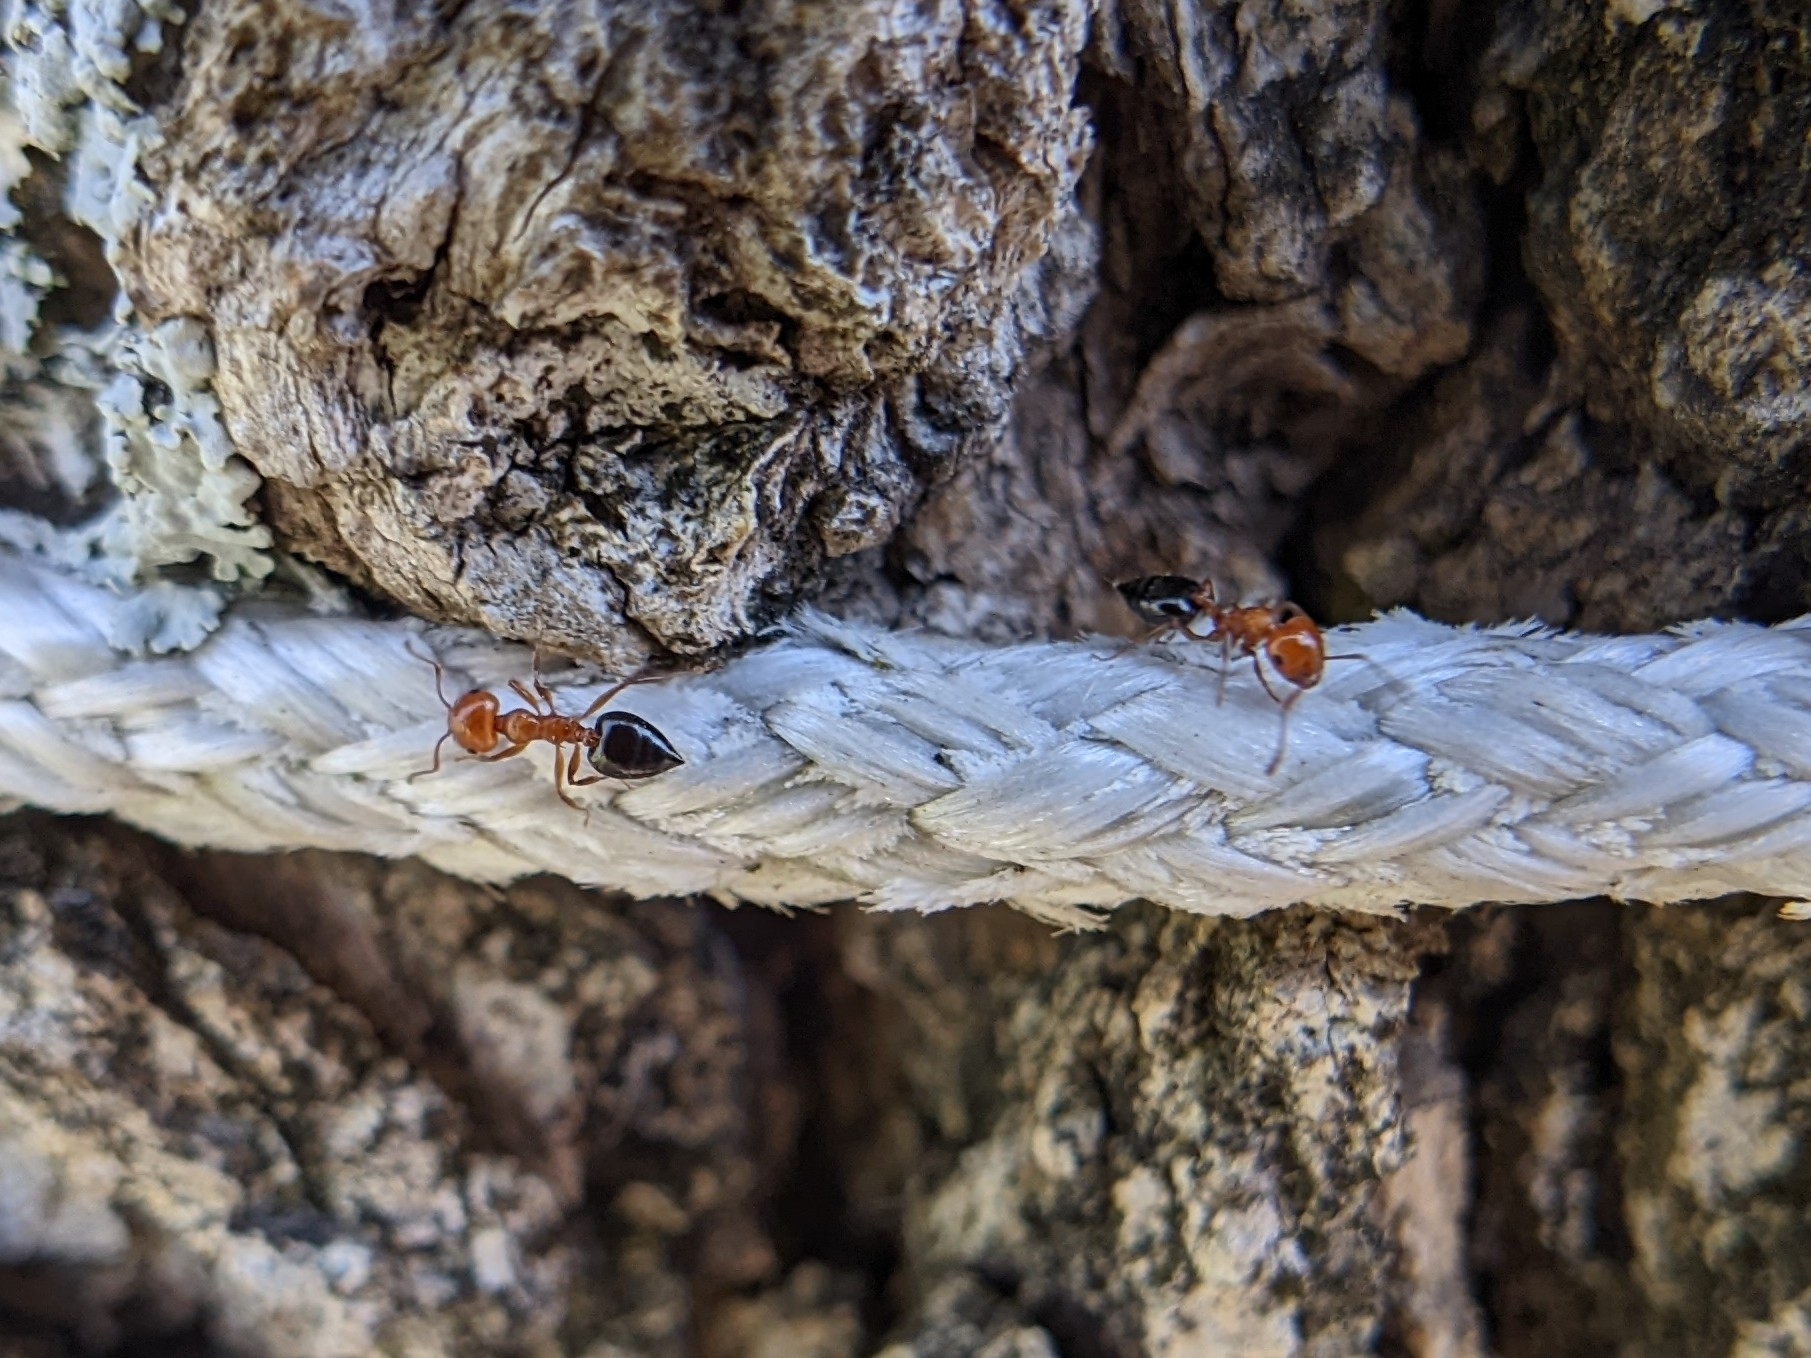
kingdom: Animalia
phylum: Arthropoda
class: Insecta
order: Hymenoptera
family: Formicidae
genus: Crematogaster
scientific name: Crematogaster laeviuscula
